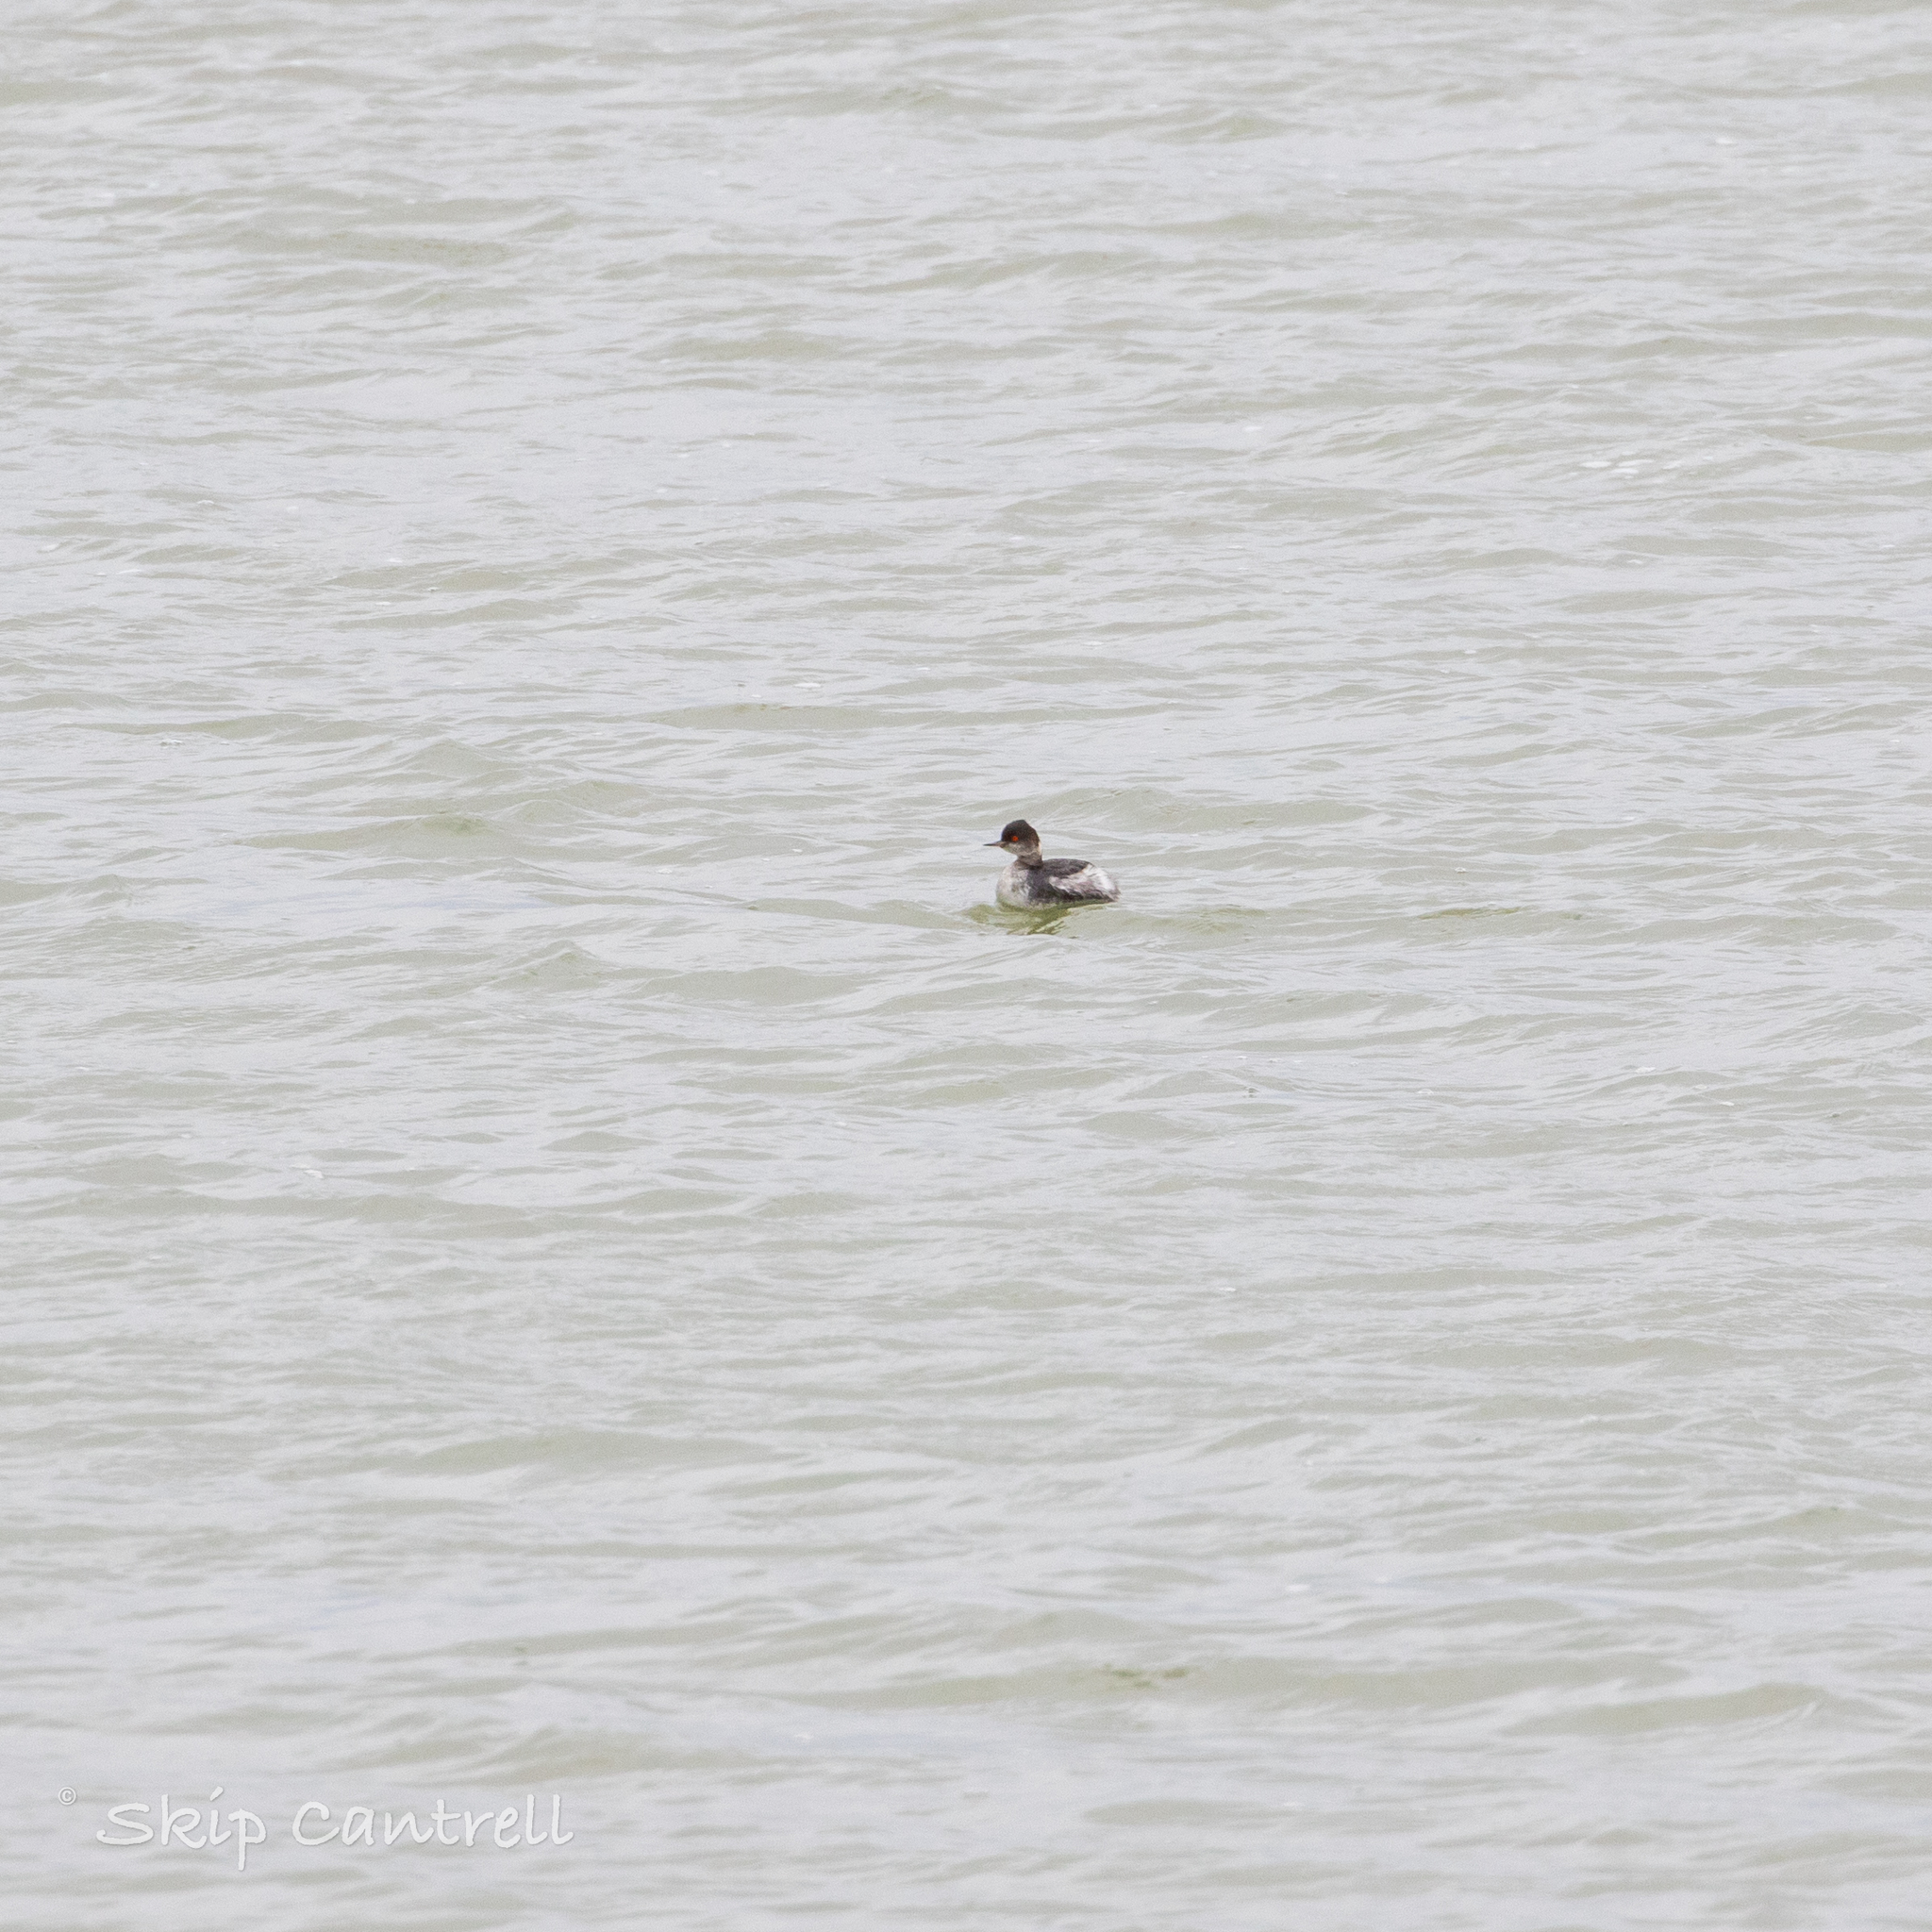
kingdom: Animalia
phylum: Chordata
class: Aves
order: Podicipediformes
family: Podicipedidae
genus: Podiceps
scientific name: Podiceps nigricollis
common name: Black-necked grebe
